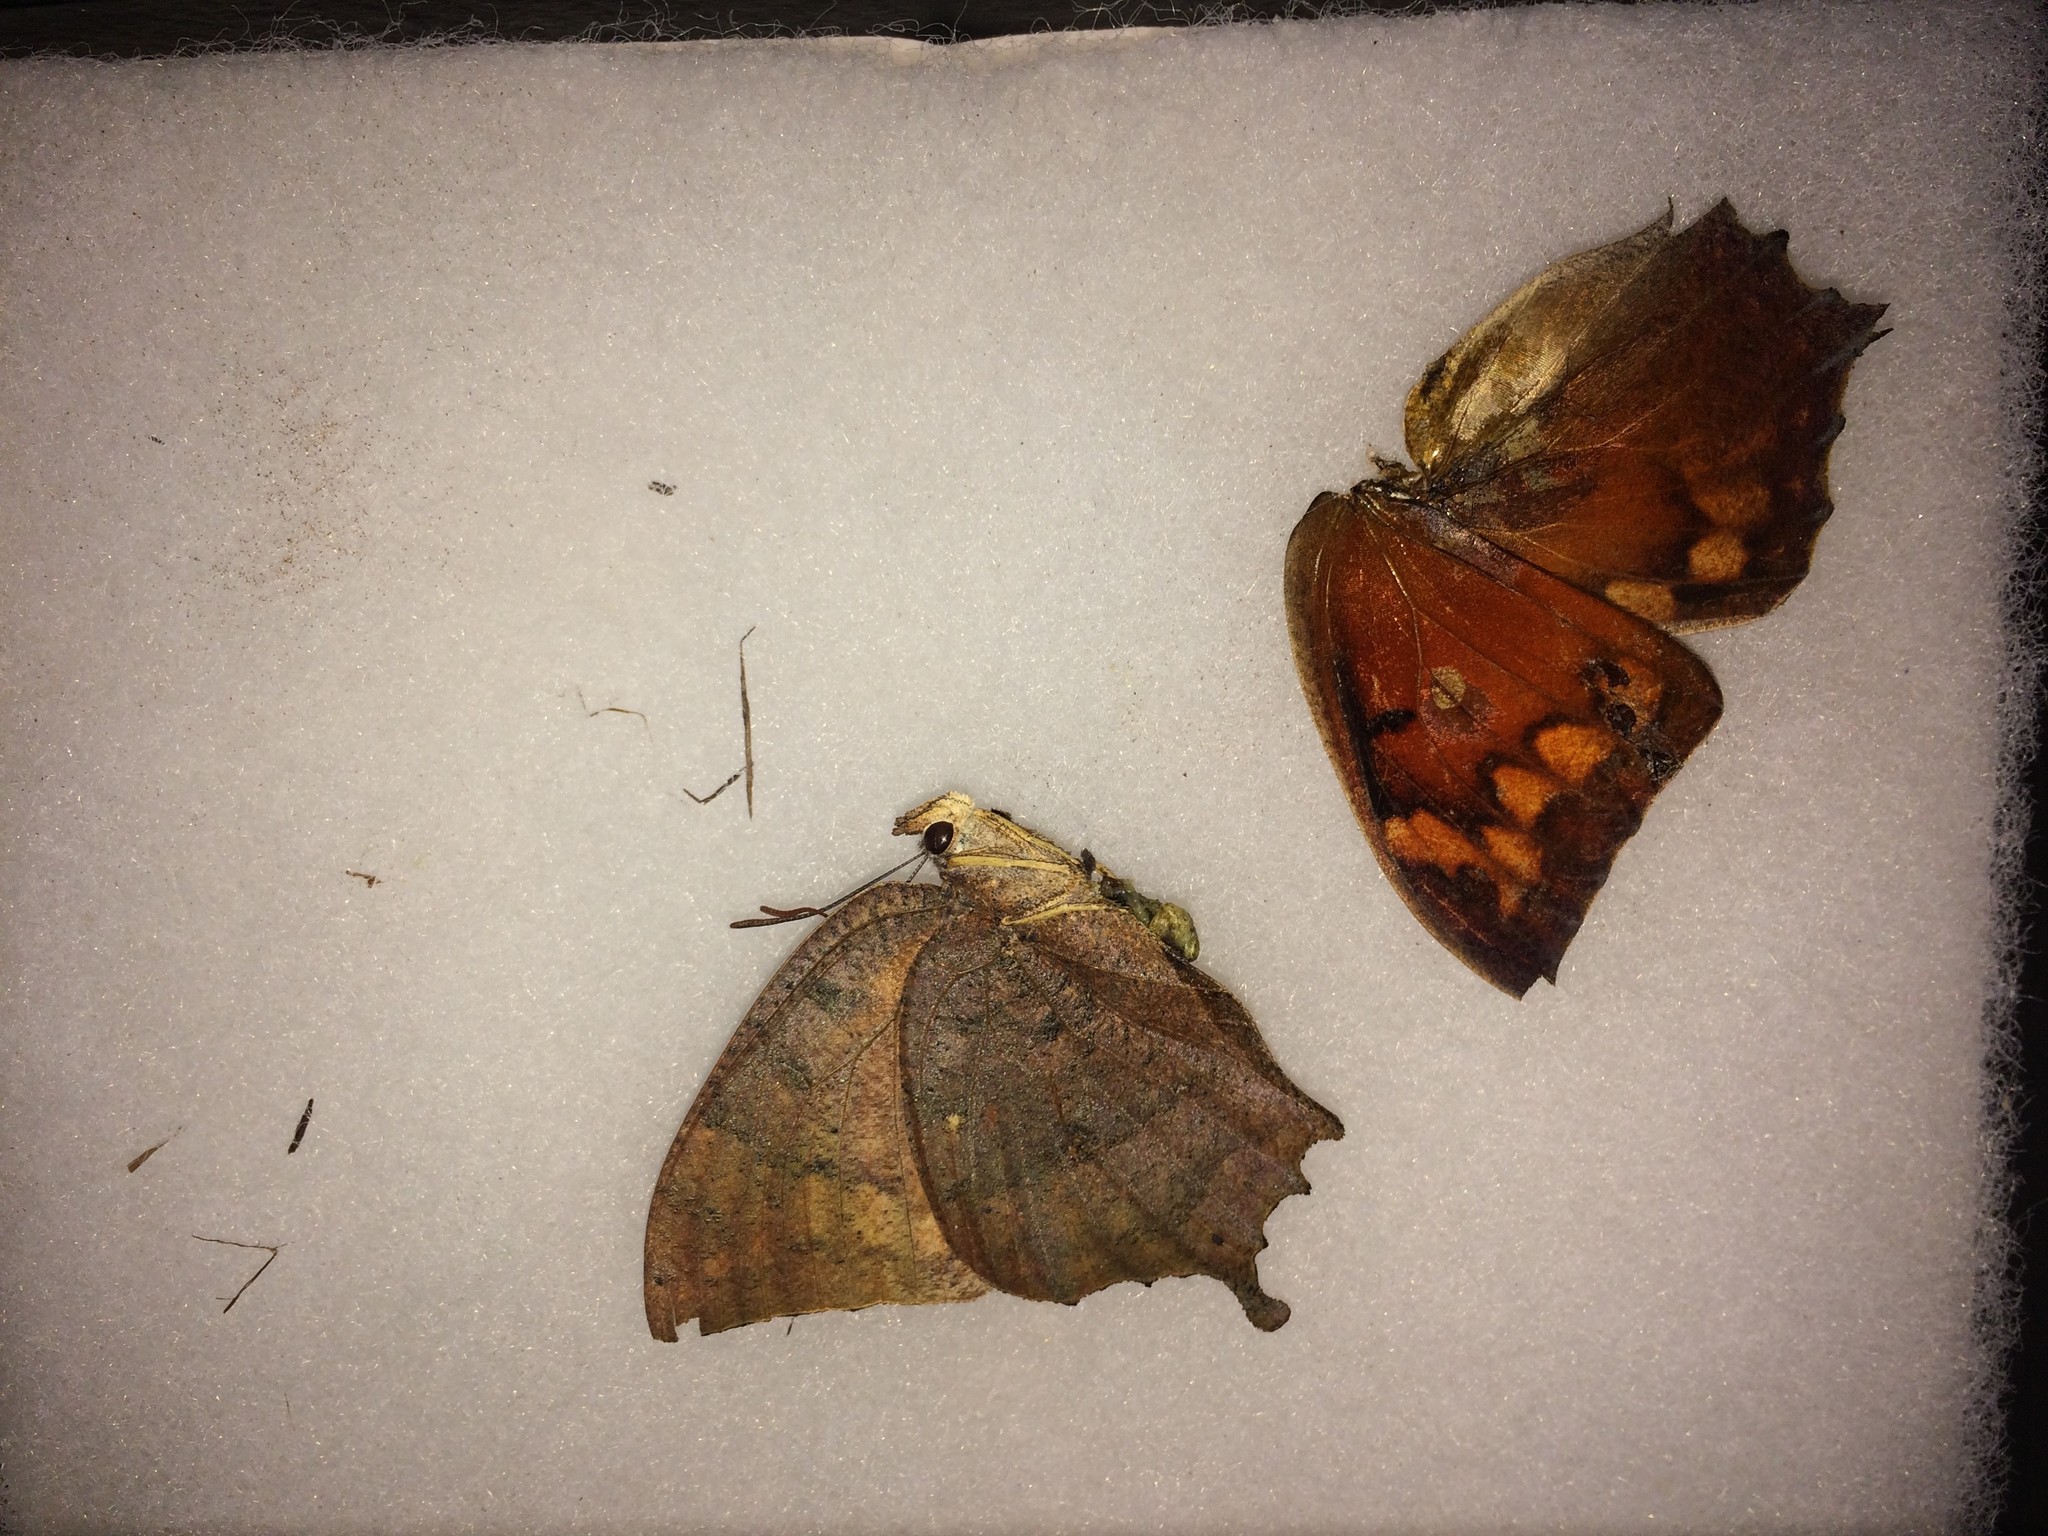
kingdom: Animalia
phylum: Arthropoda
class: Insecta
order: Lepidoptera
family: Nymphalidae
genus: Anaea
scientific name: Anaea aidea
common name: Tropical leafwing
